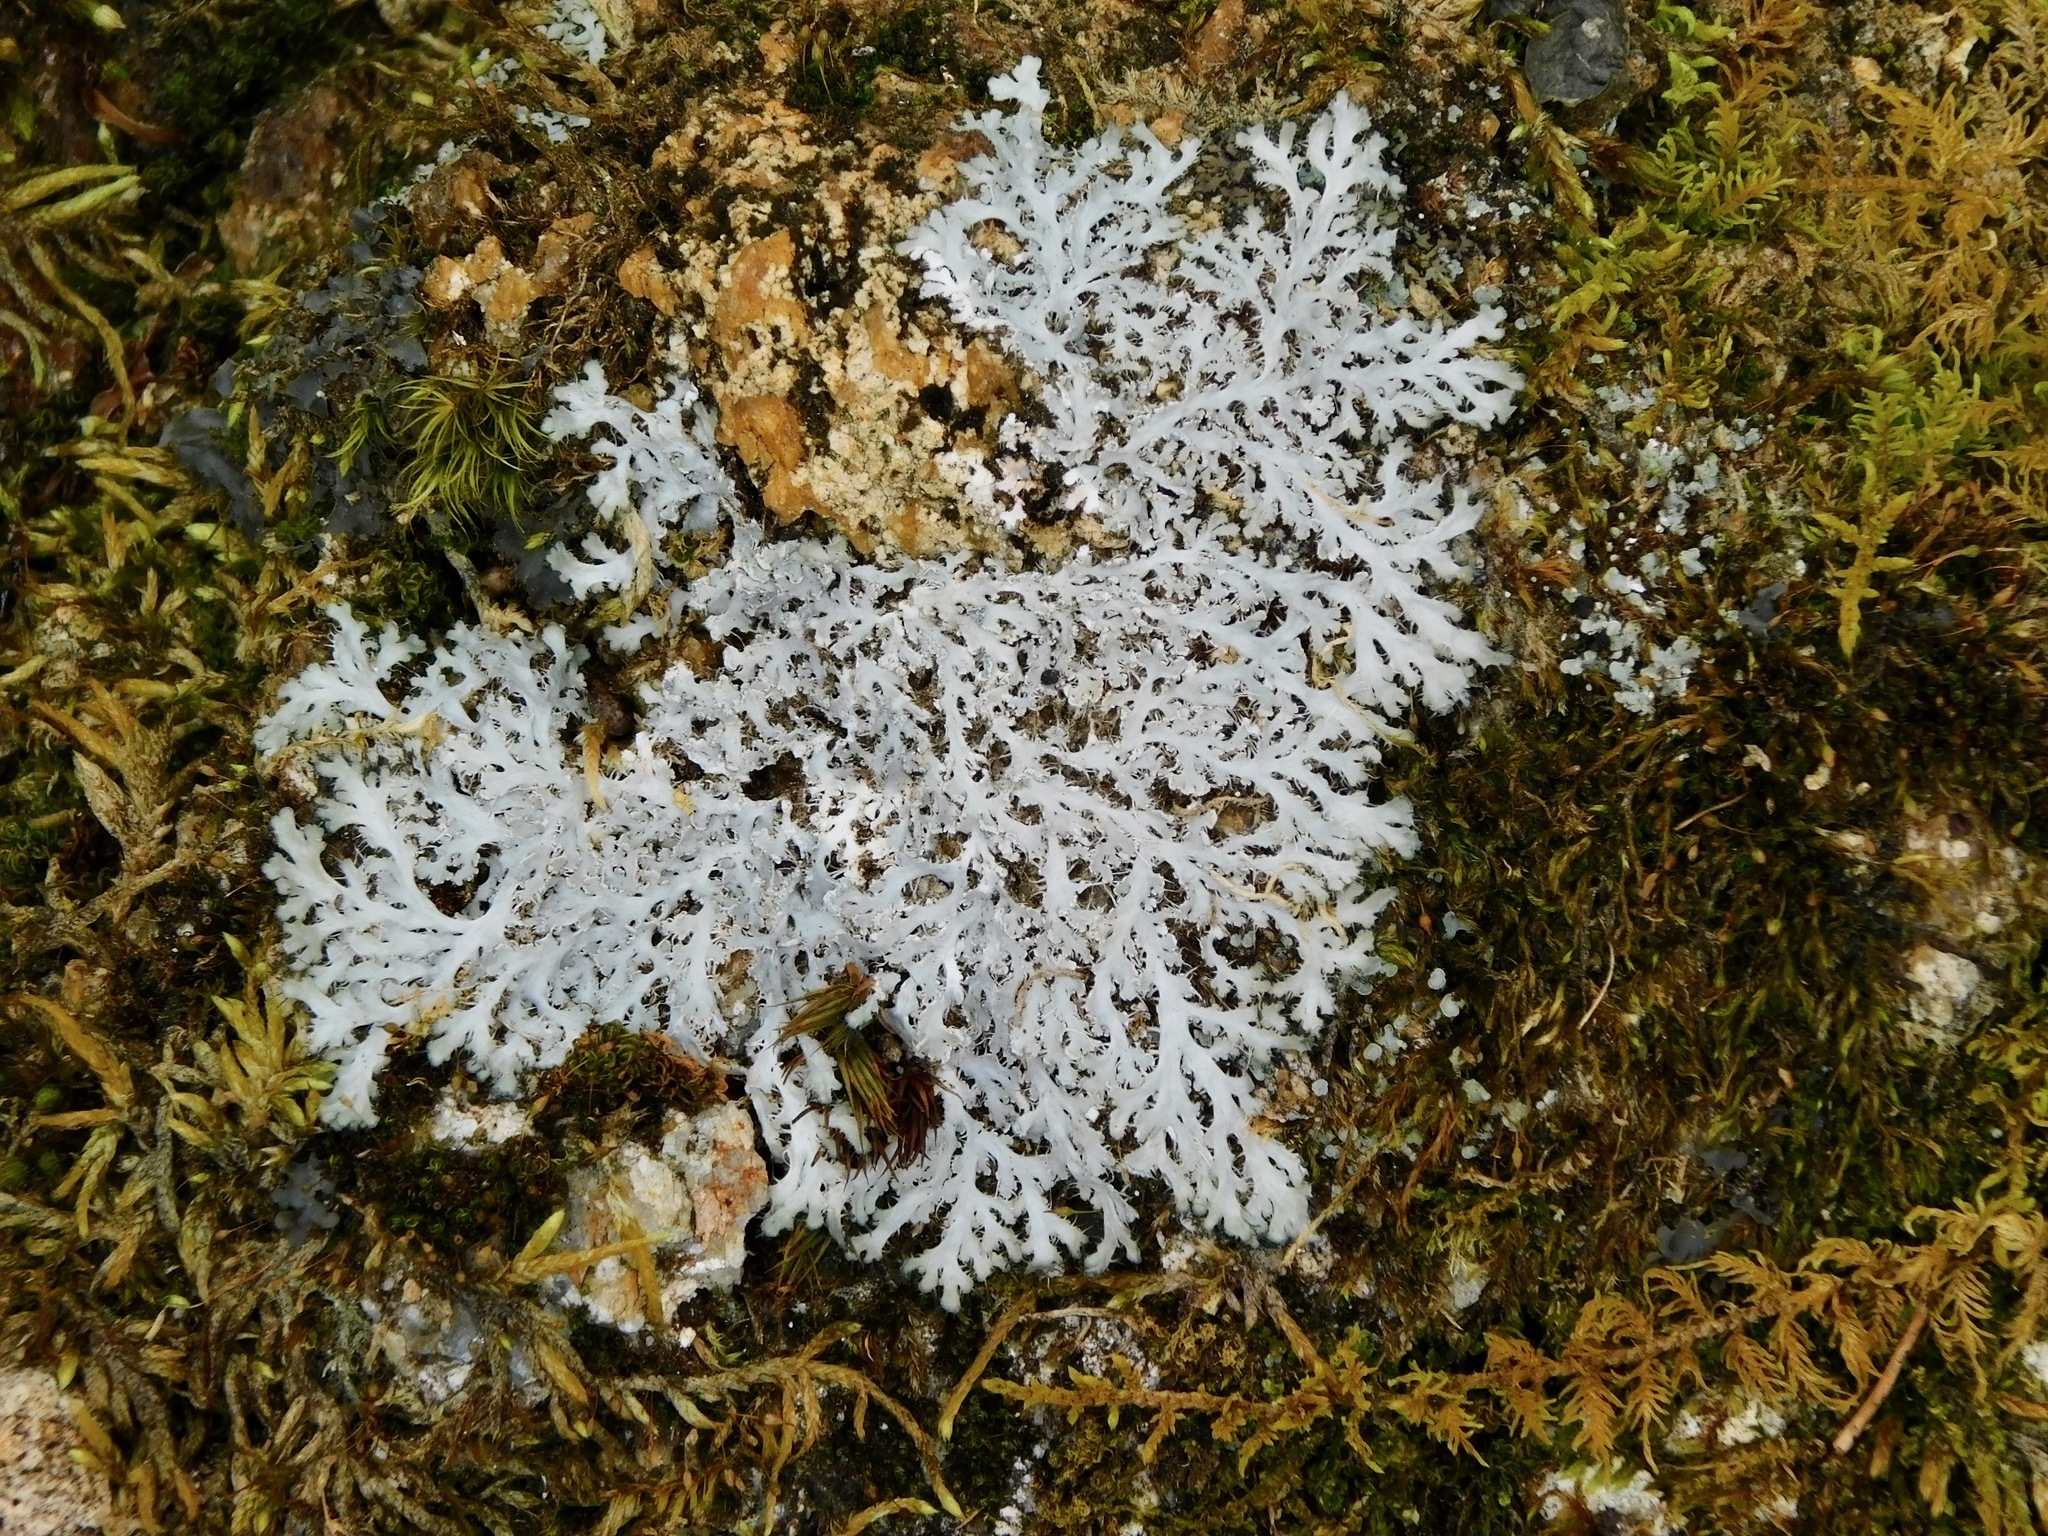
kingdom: Fungi
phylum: Ascomycota
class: Lecanoromycetes
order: Caliciales
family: Physciaceae
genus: Heterodermia
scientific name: Heterodermia speciosa
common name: Powdered fringe lichen
